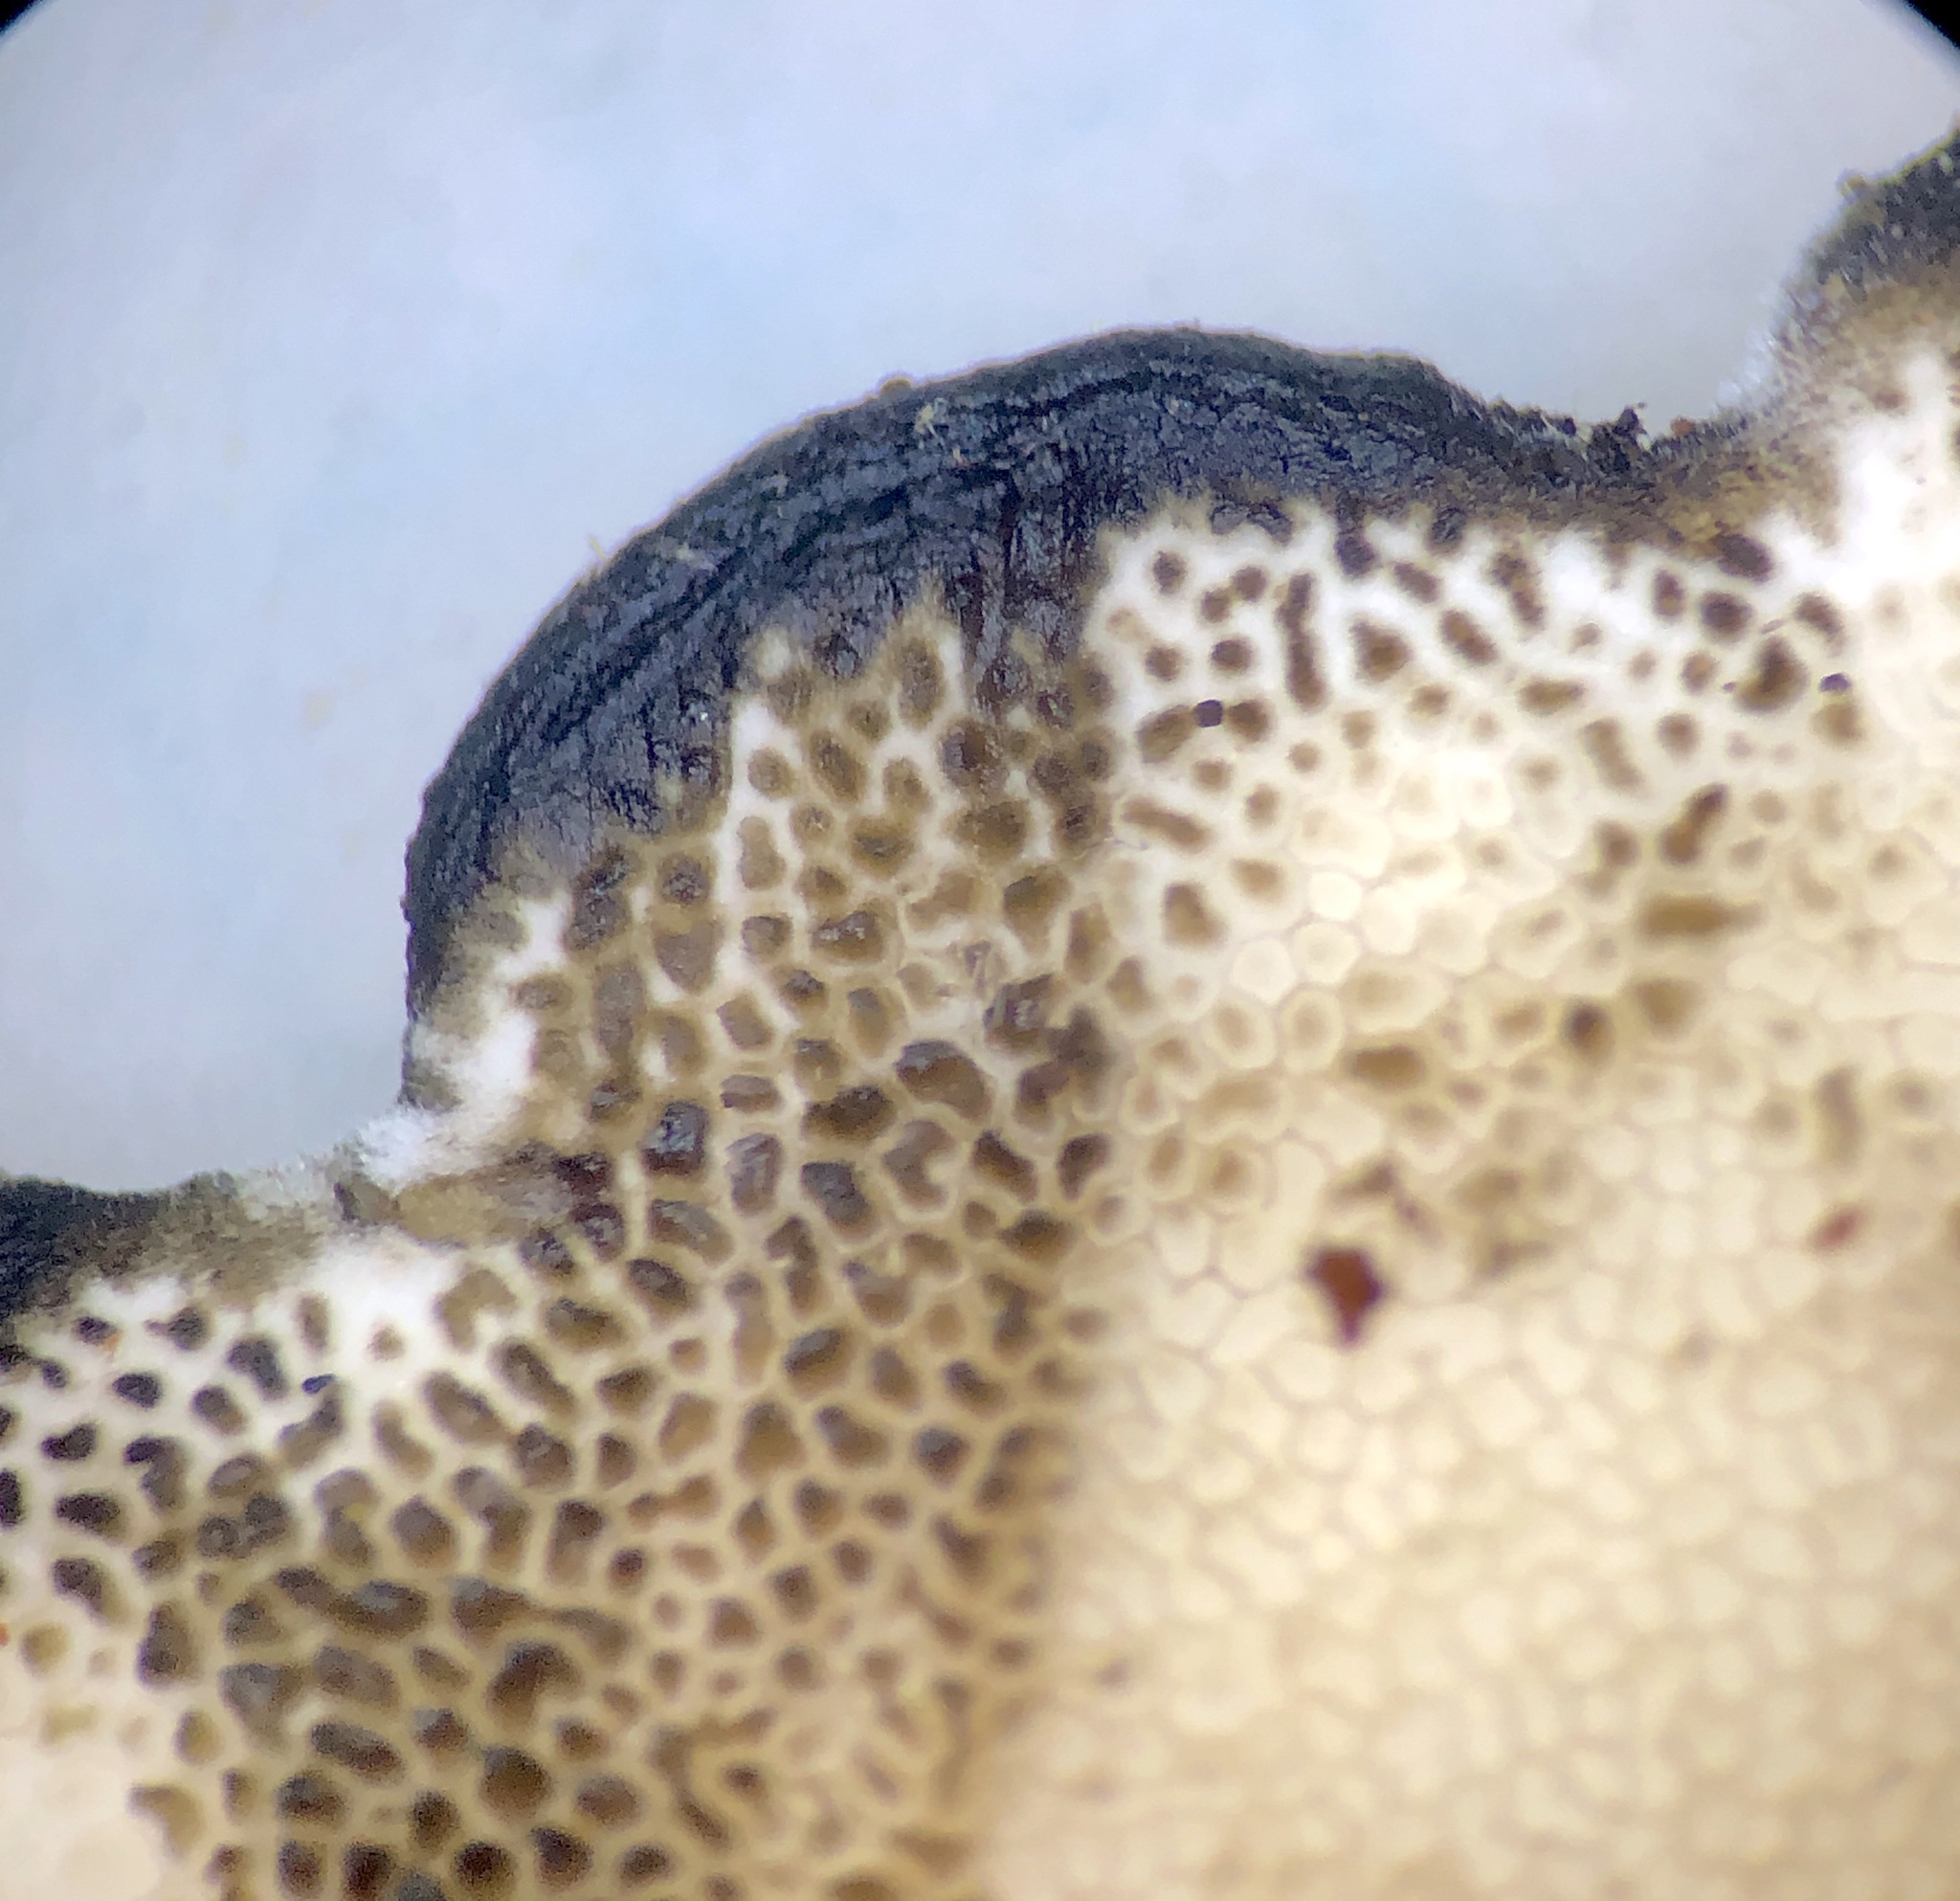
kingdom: Fungi
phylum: Basidiomycota
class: Agaricomycetes
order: Polyporales
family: Steccherinaceae
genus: Mycorrhaphium
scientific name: Mycorrhaphium adustum
